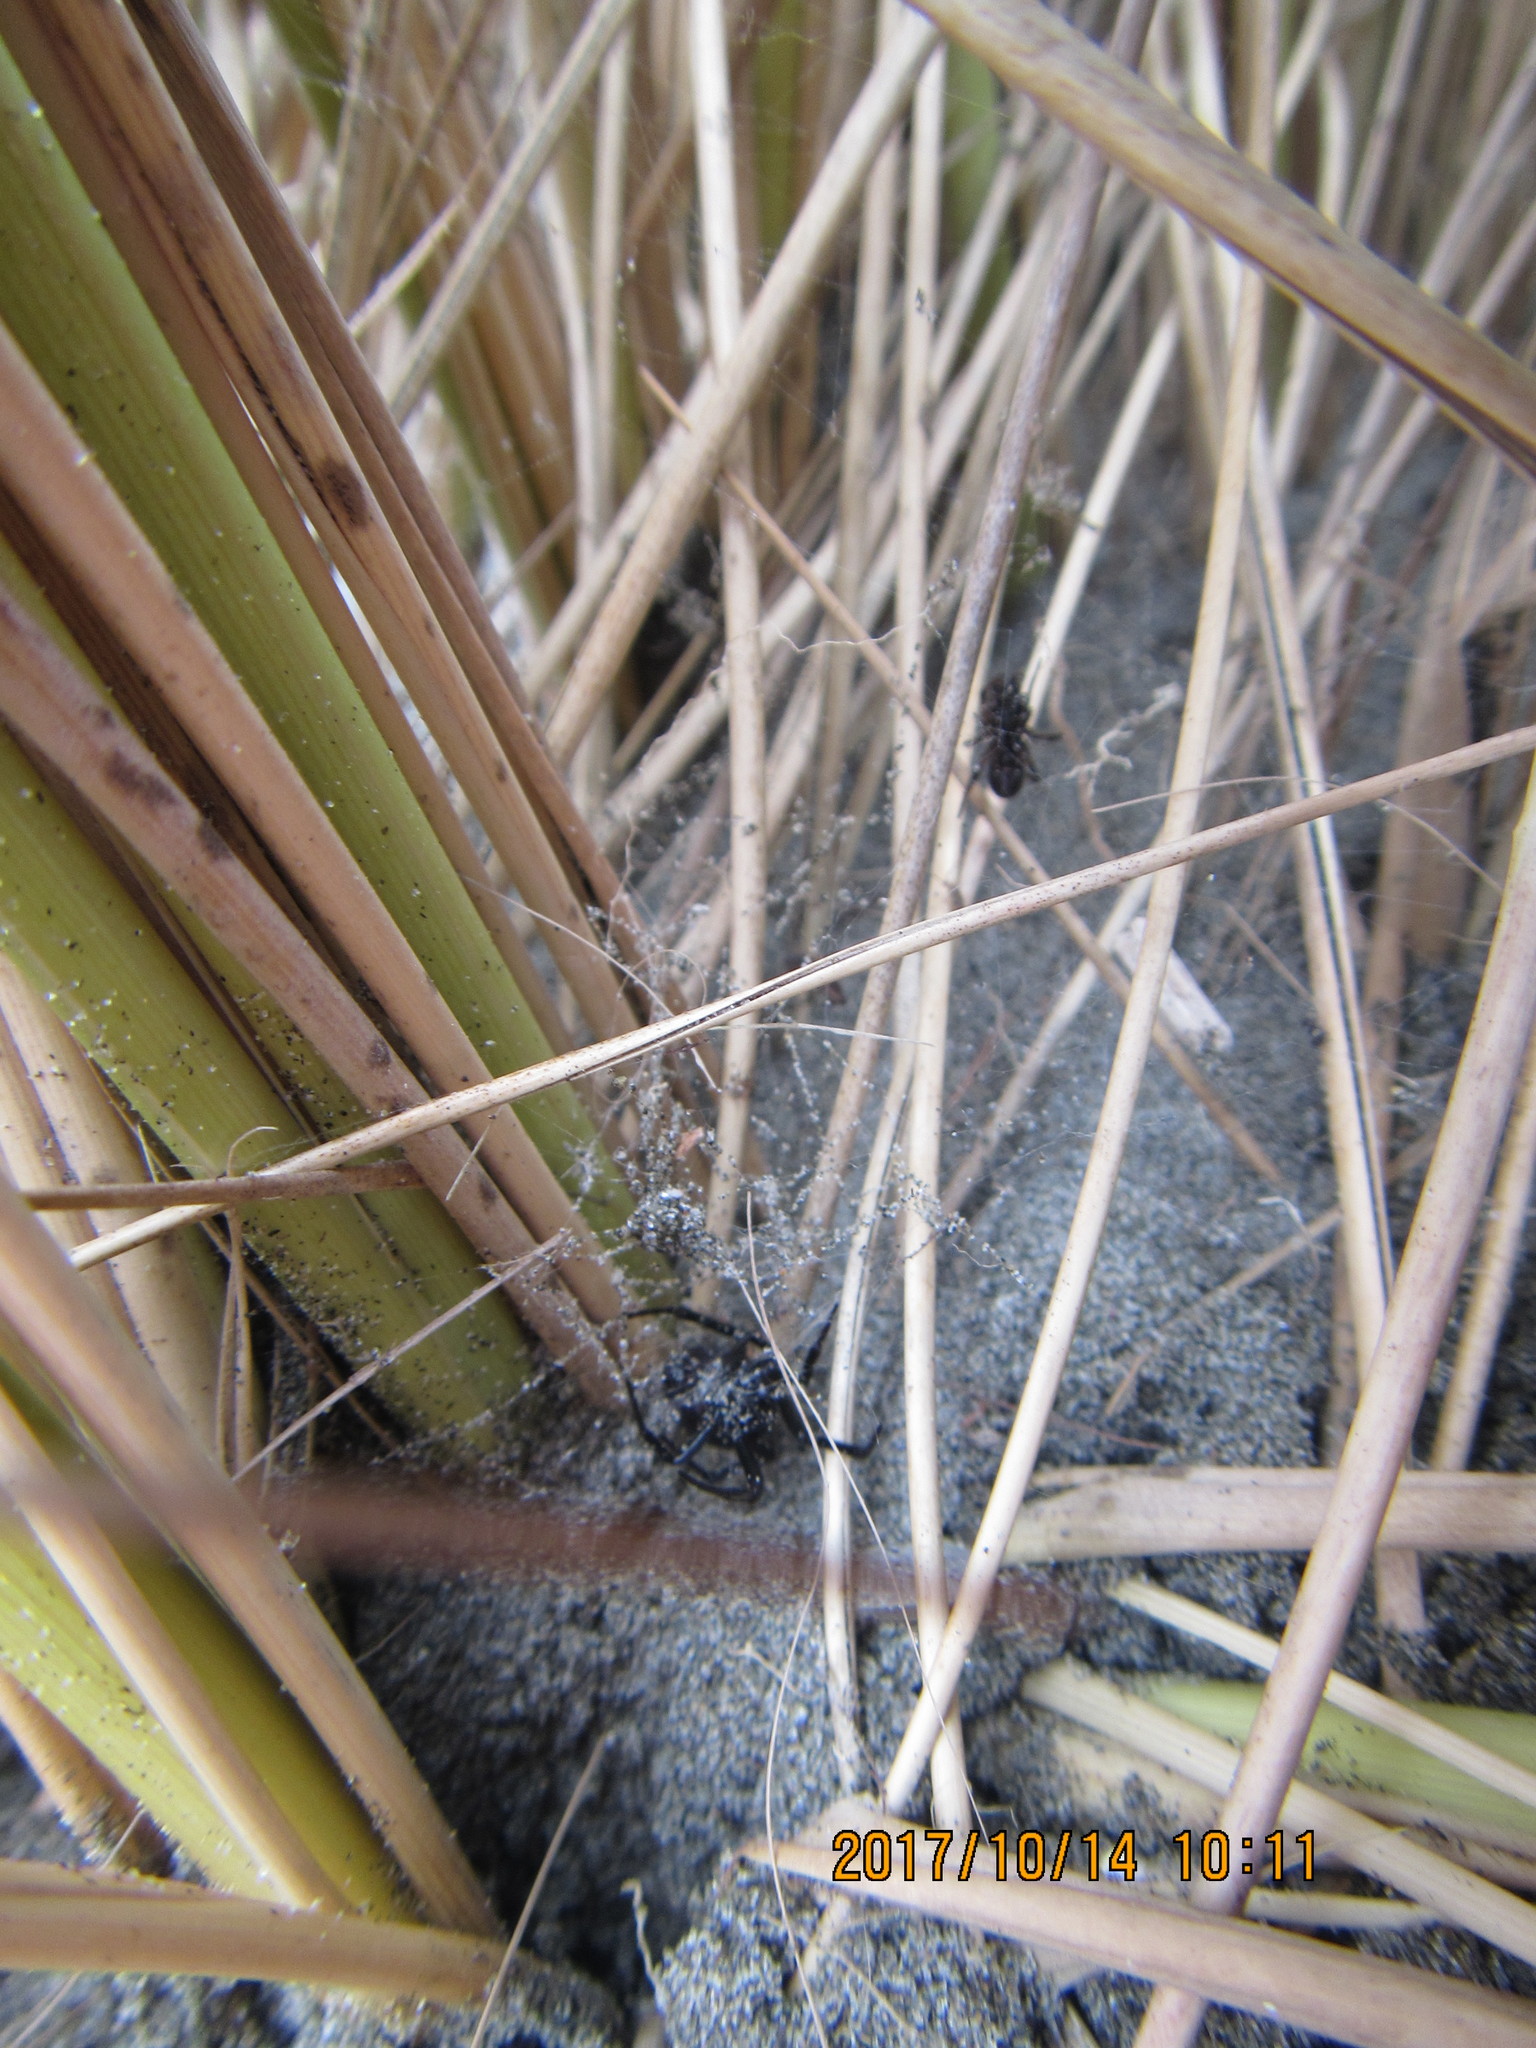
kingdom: Animalia
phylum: Arthropoda
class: Arachnida
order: Araneae
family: Theridiidae
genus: Steatoda
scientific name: Steatoda capensis
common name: Cobweb weaver
